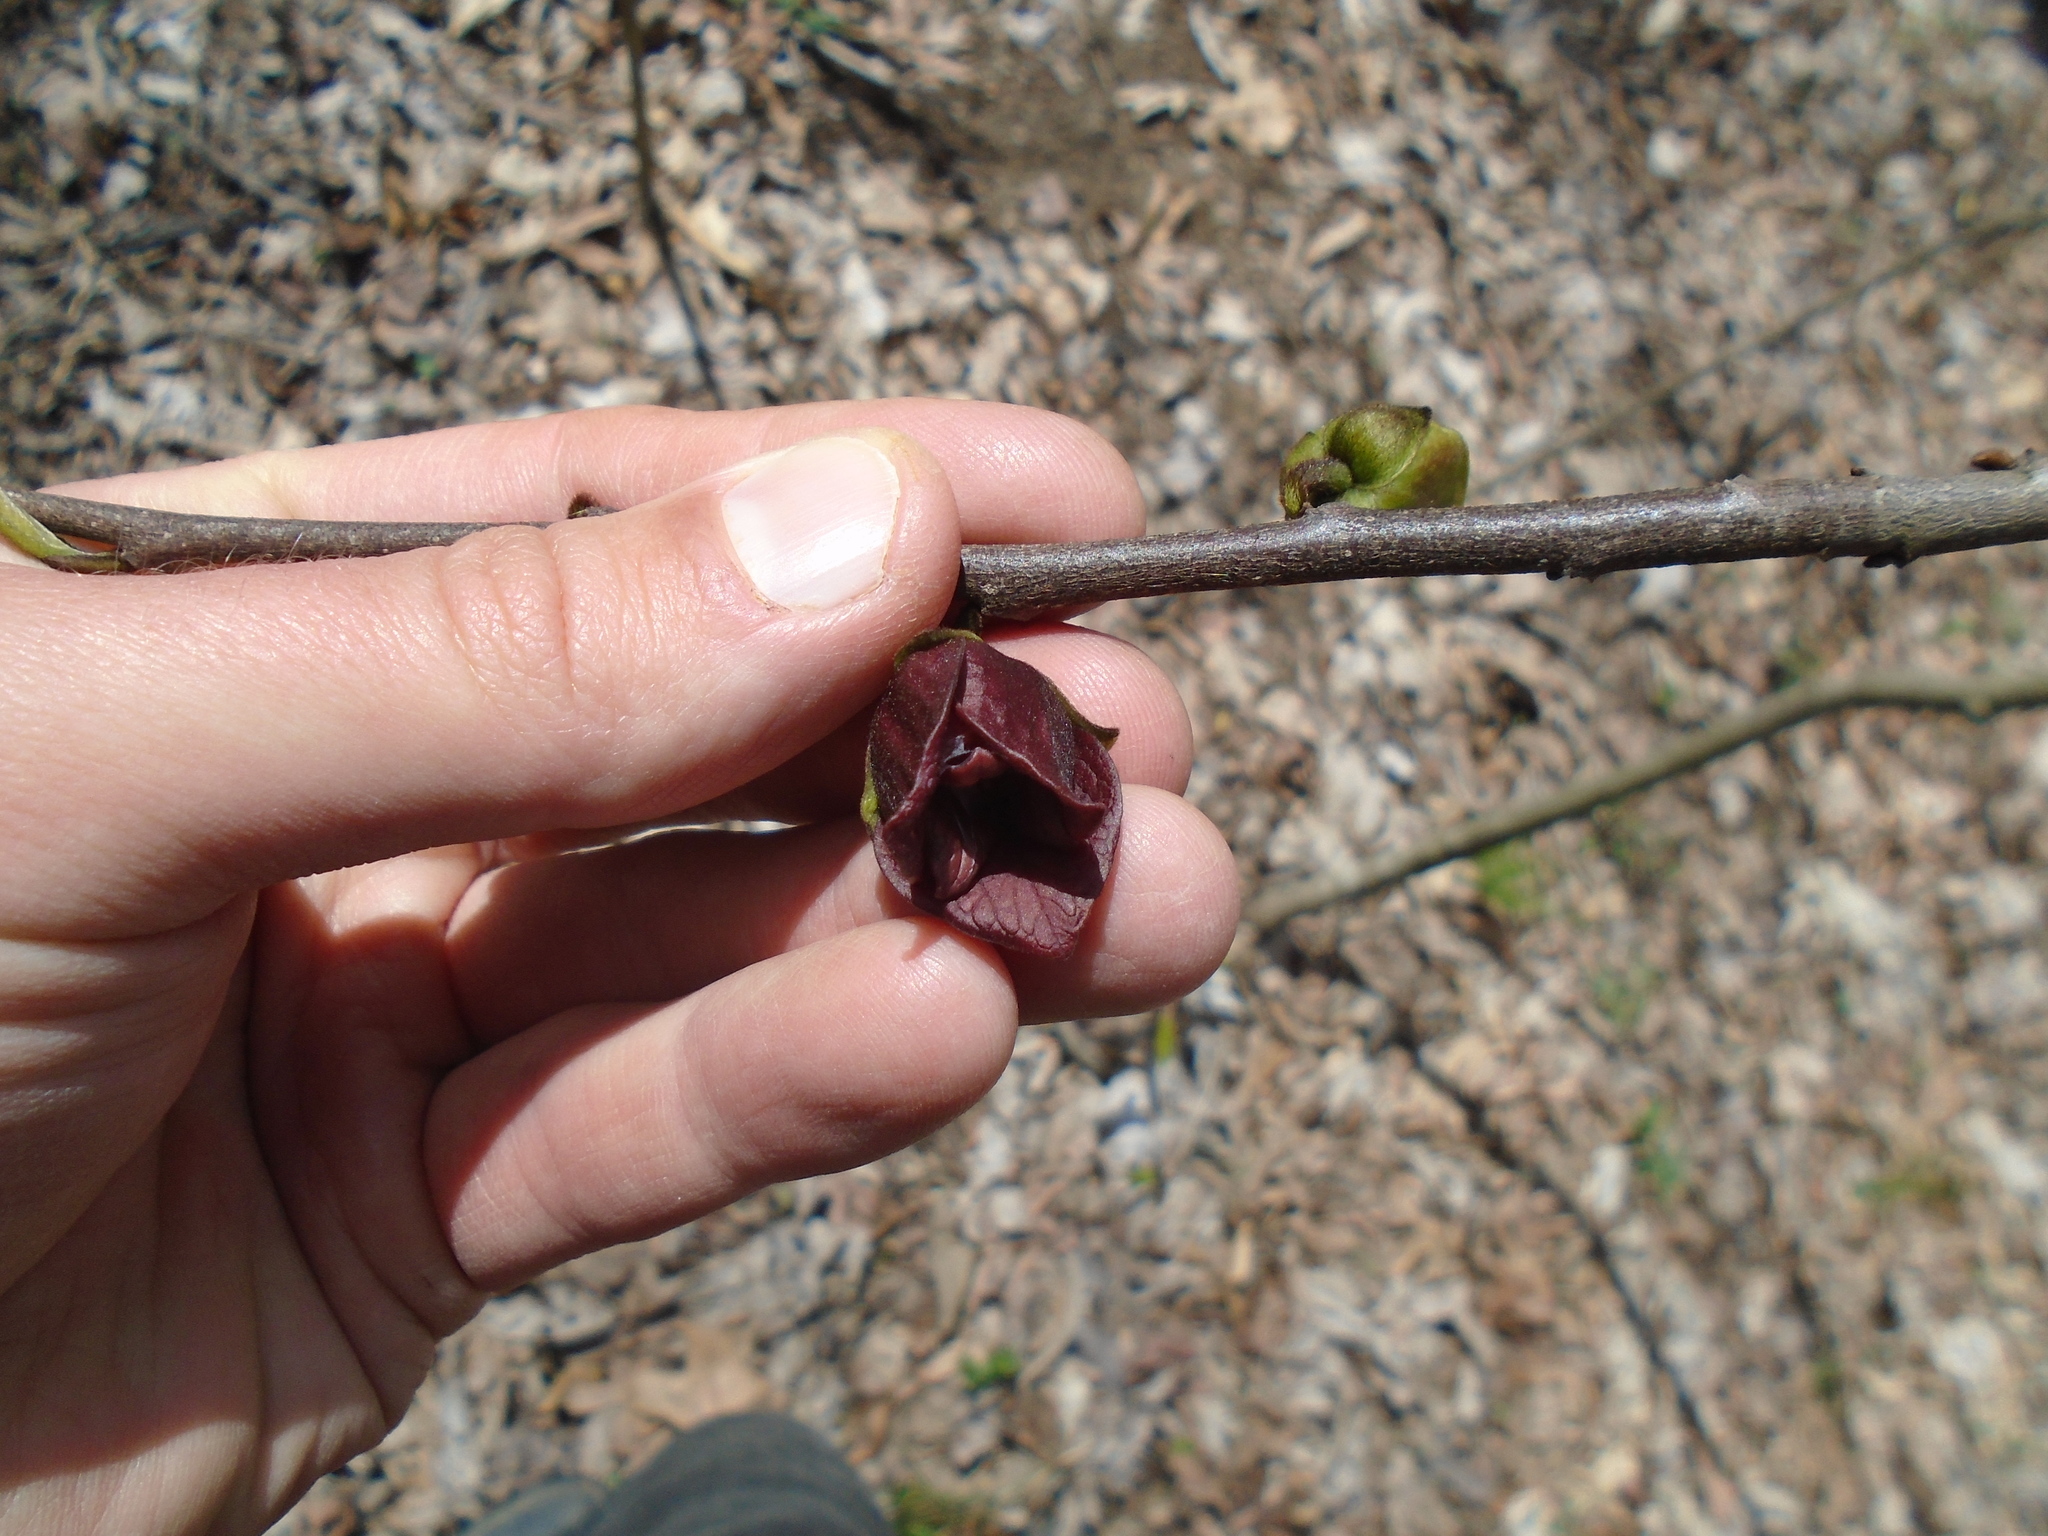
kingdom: Plantae
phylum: Tracheophyta
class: Magnoliopsida
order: Magnoliales
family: Annonaceae
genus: Asimina
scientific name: Asimina triloba
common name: Dog-banana
